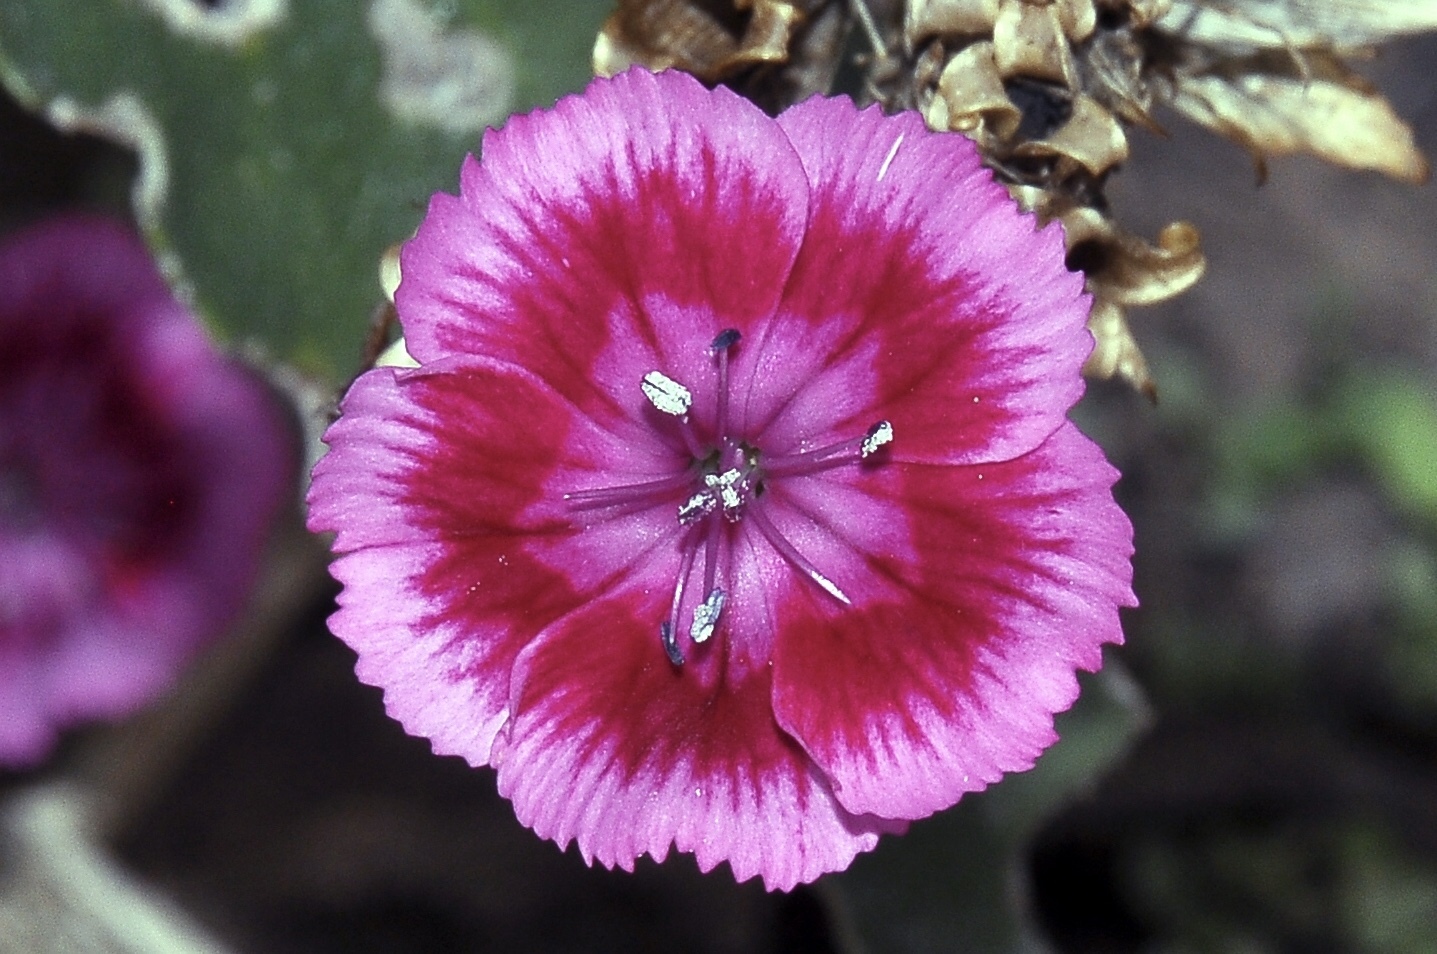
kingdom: Plantae
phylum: Tracheophyta
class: Magnoliopsida
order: Caryophyllales
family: Caryophyllaceae
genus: Dianthus
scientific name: Dianthus chinensis
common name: Rainbow pink
